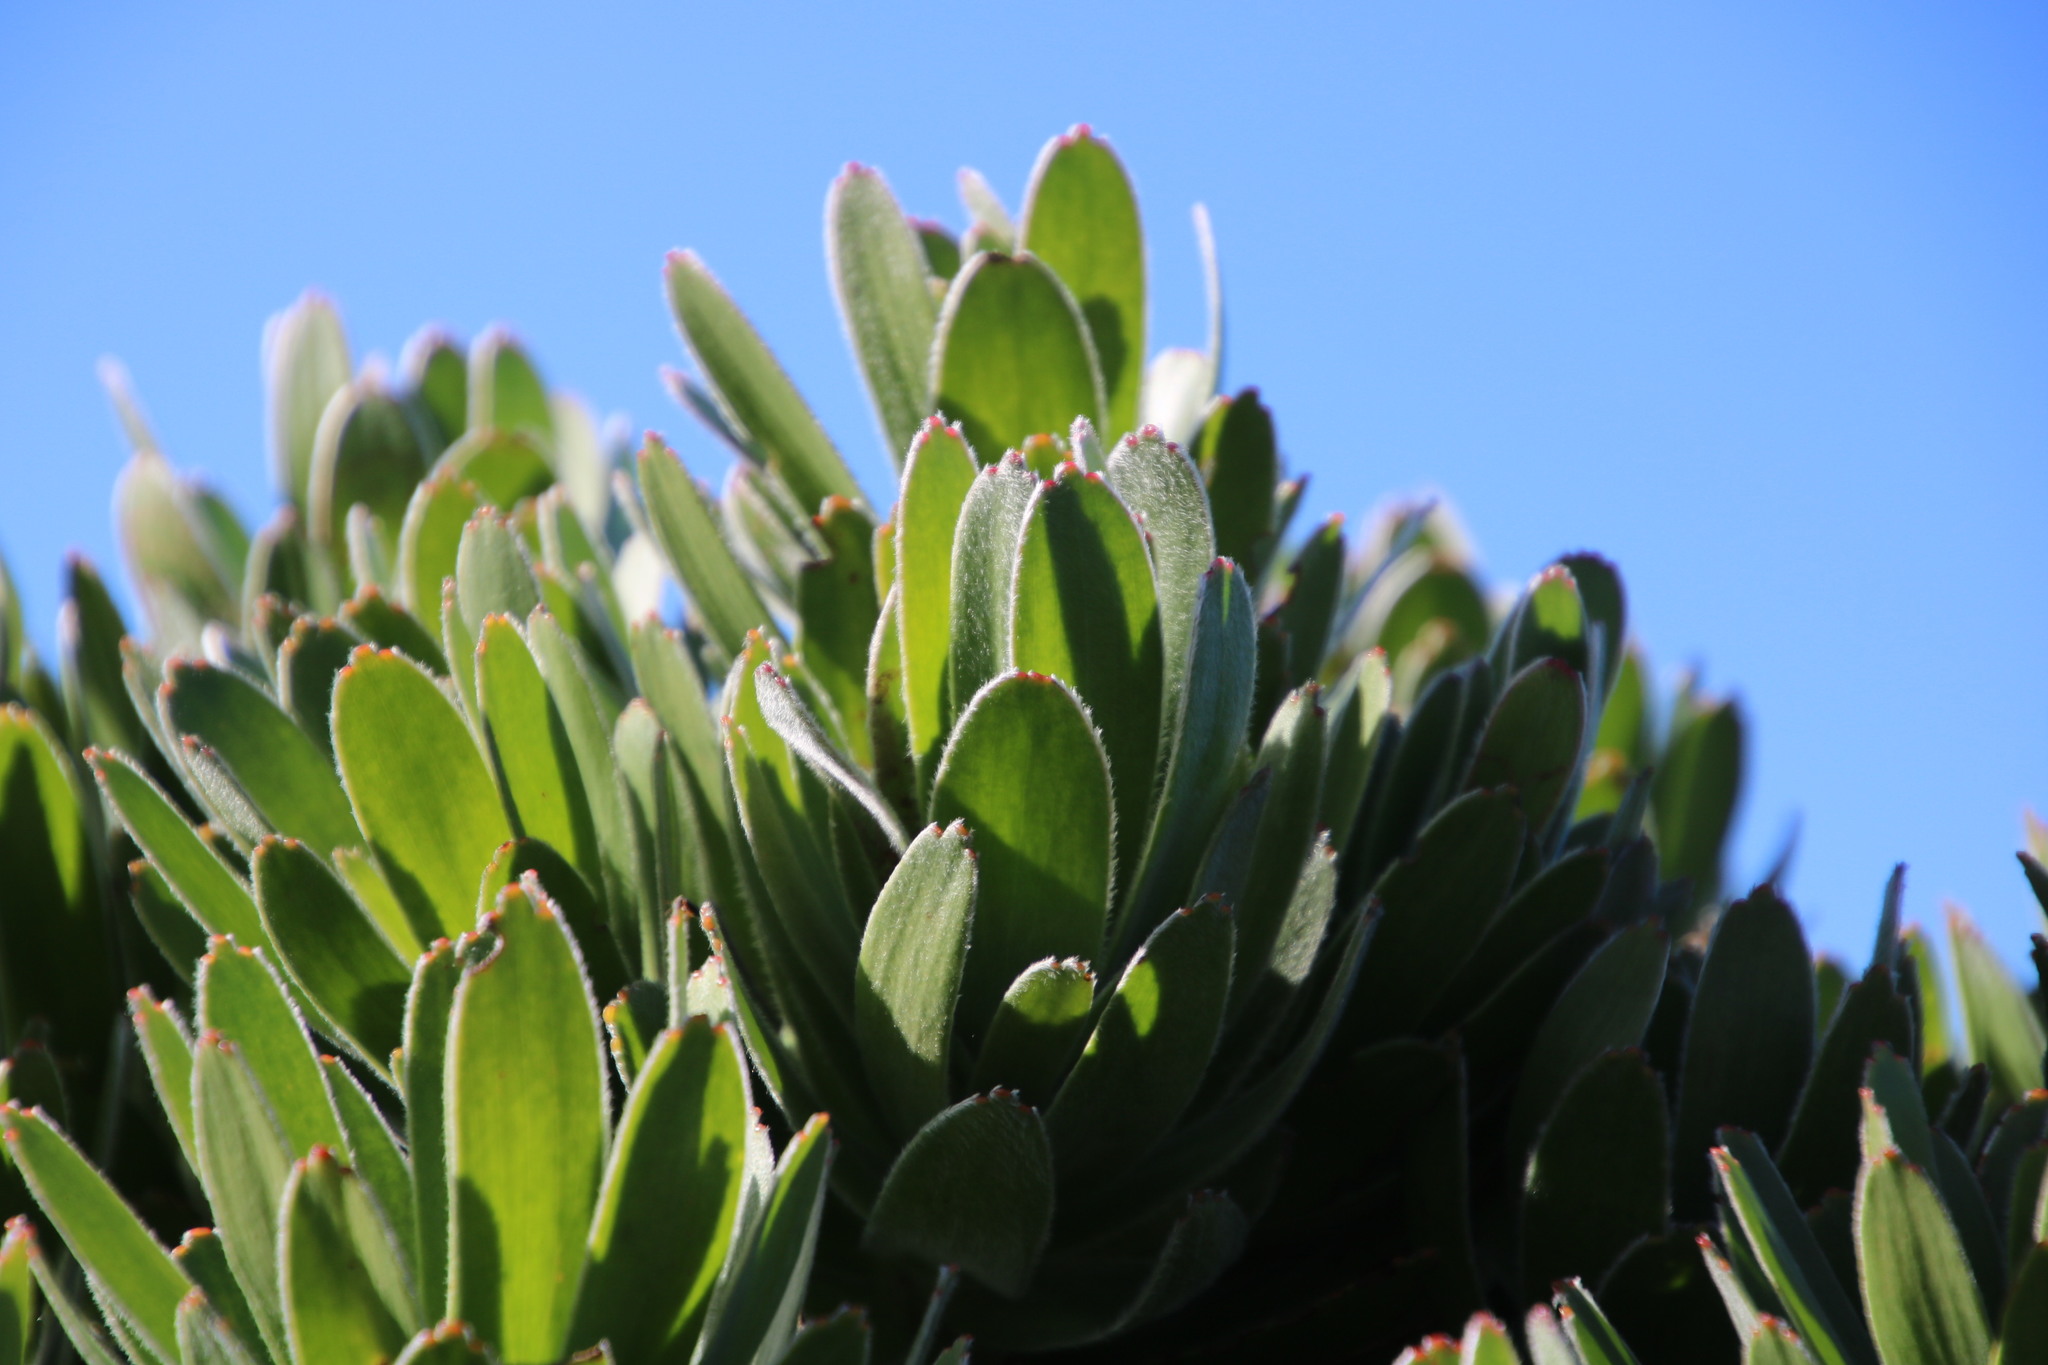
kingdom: Plantae
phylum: Tracheophyta
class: Magnoliopsida
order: Proteales
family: Proteaceae
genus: Mimetes
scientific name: Mimetes fimbriifolius
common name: Fringed bottlebrush
